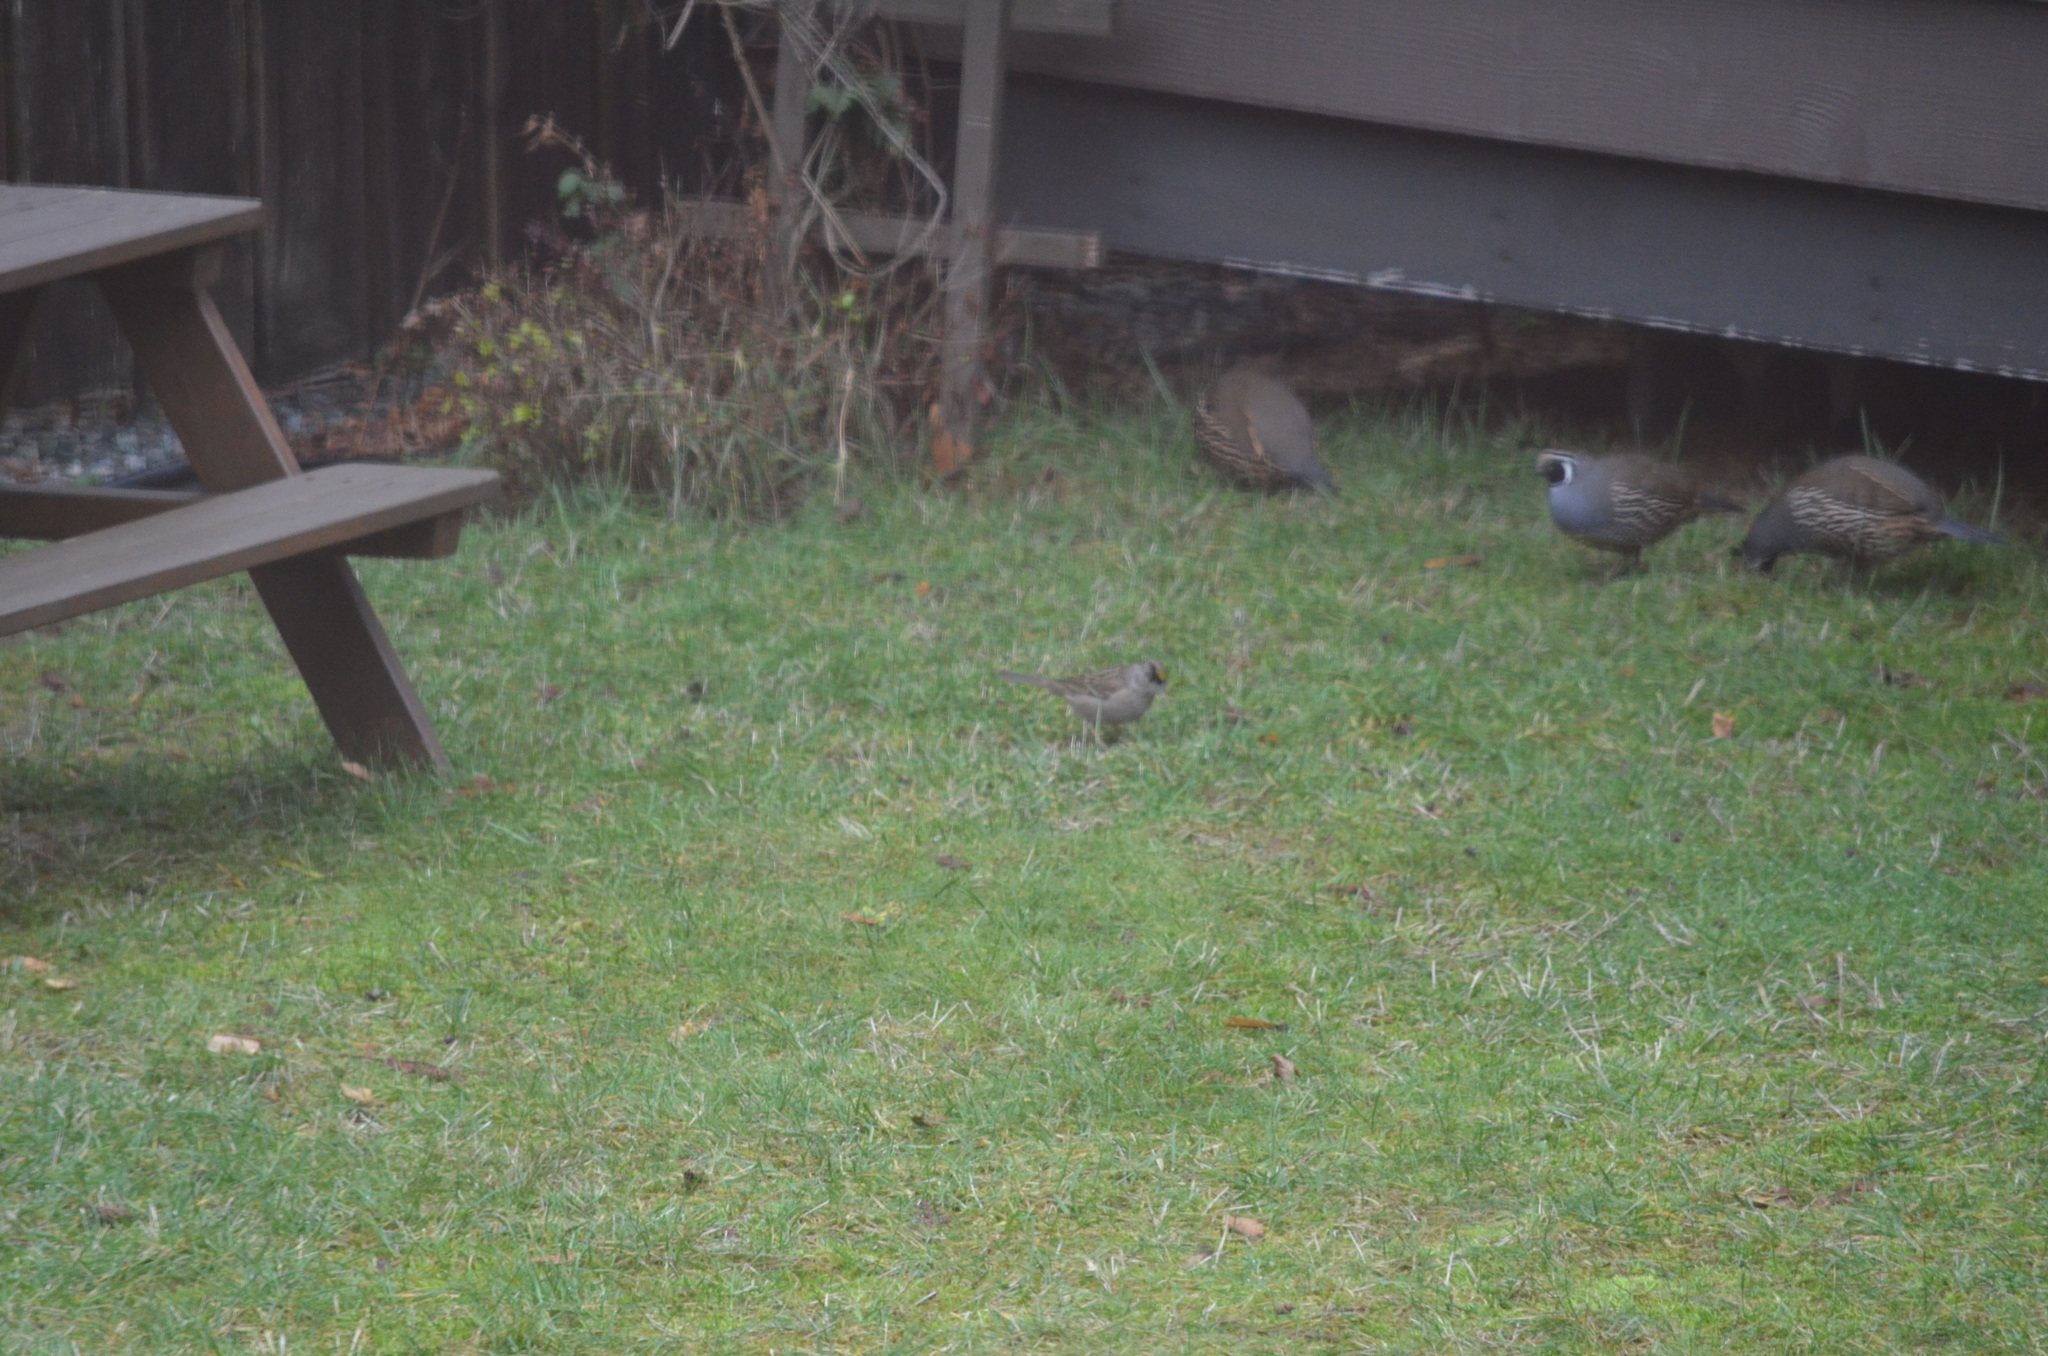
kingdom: Animalia
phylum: Chordata
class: Aves
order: Passeriformes
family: Passerellidae
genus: Zonotrichia
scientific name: Zonotrichia atricapilla
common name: Golden-crowned sparrow
